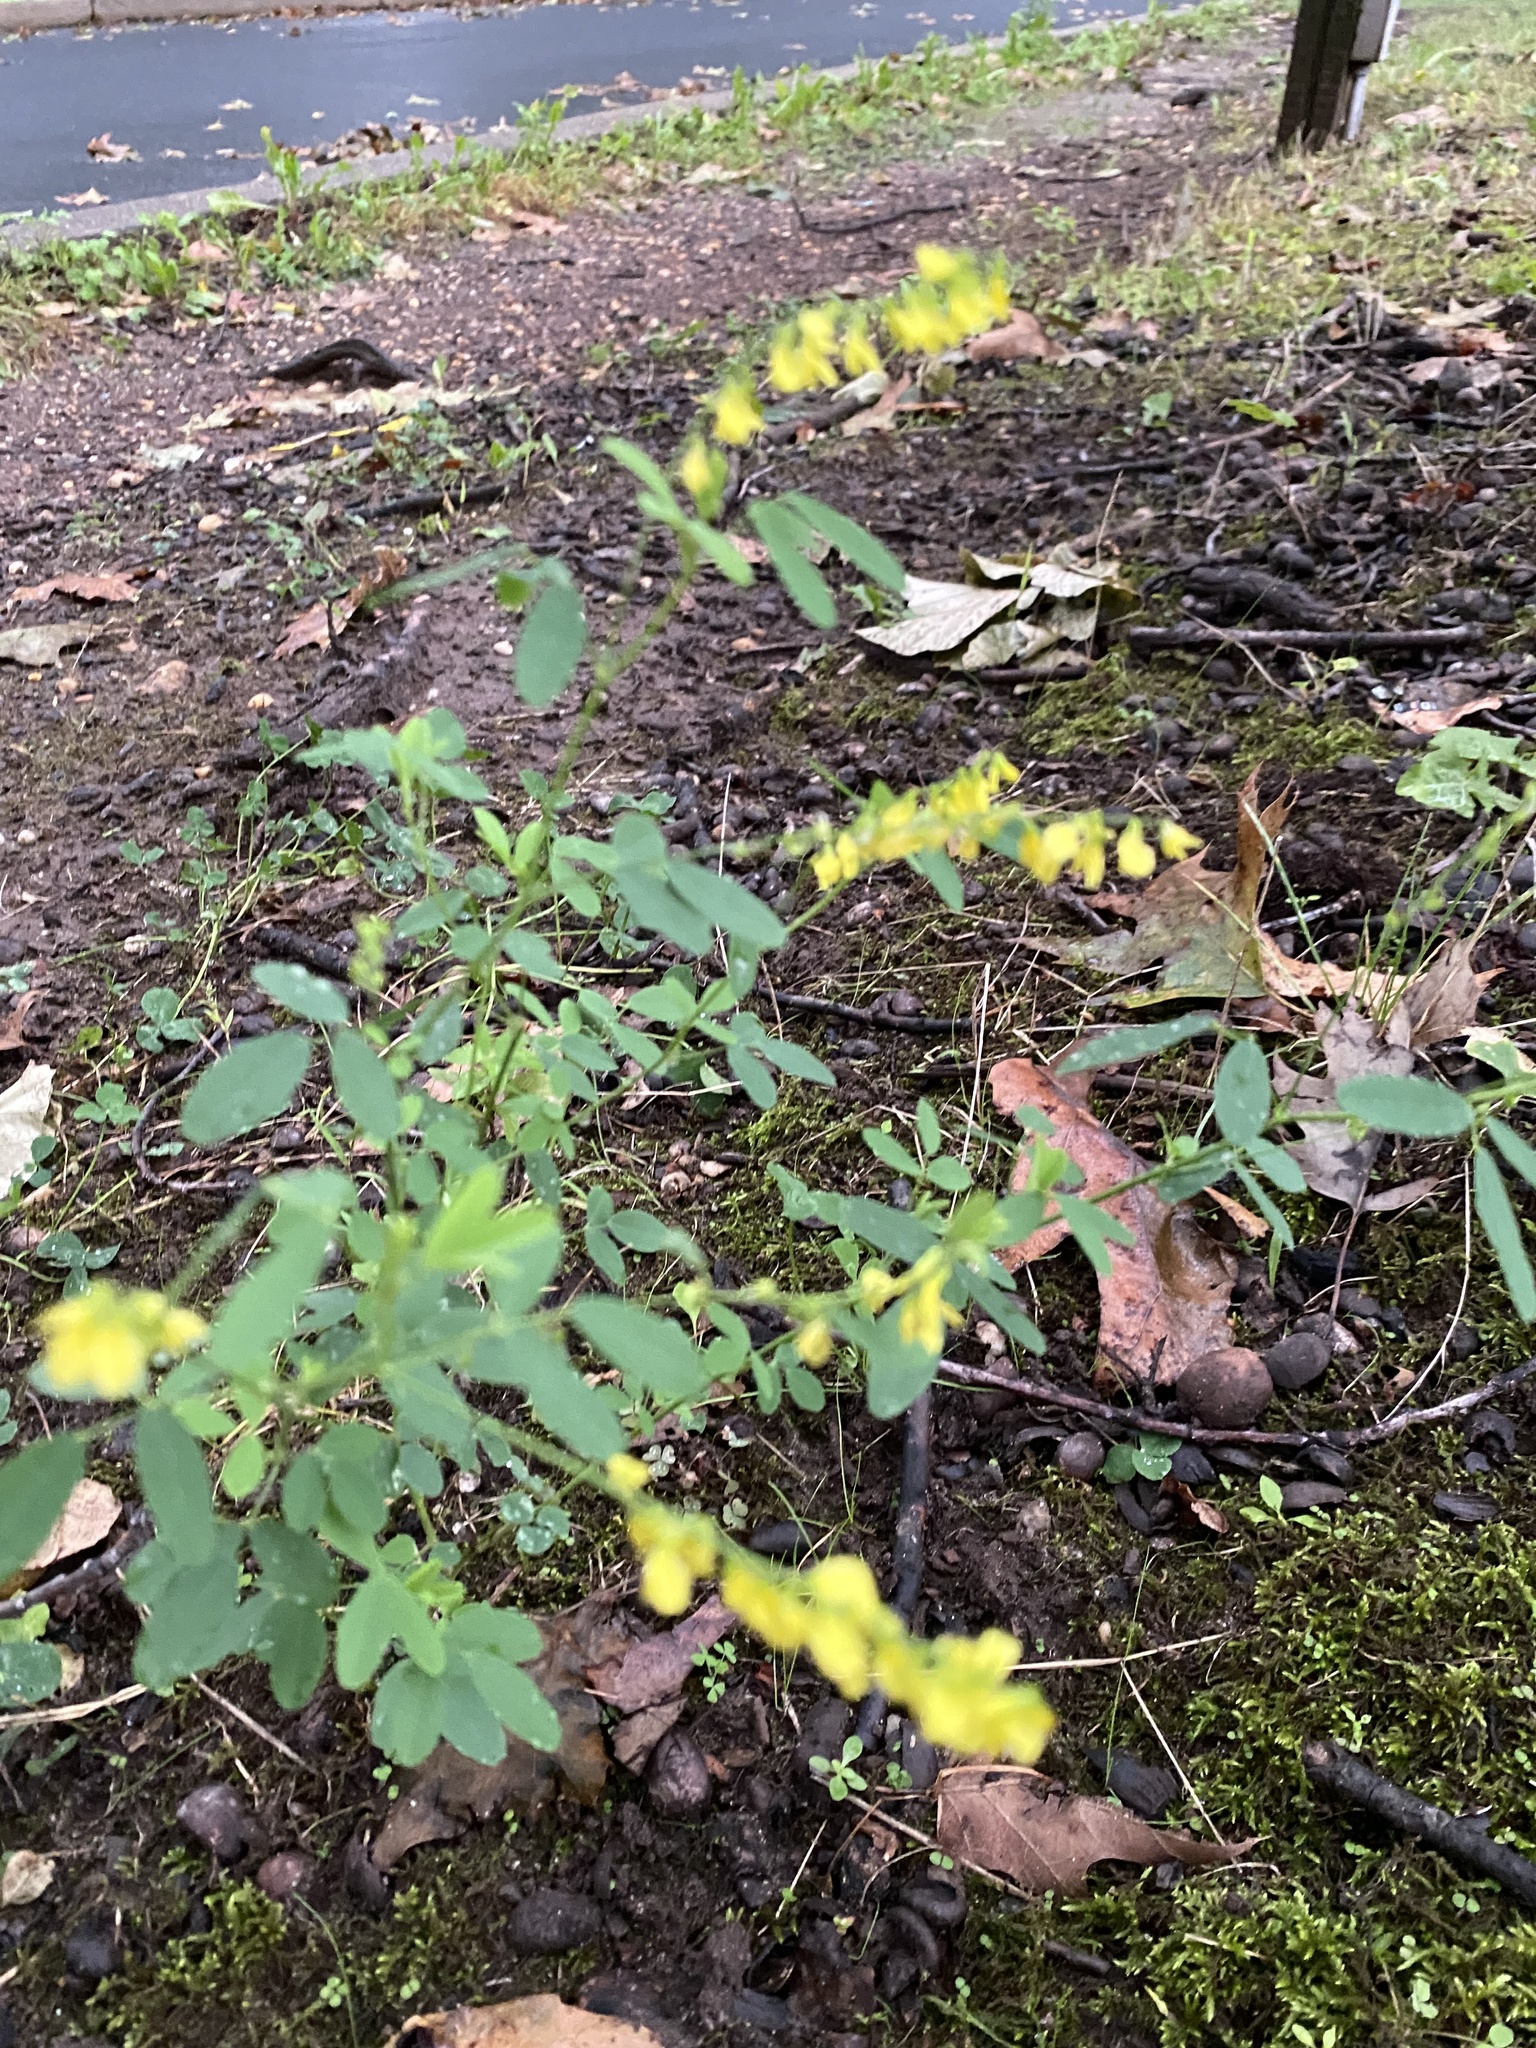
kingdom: Plantae
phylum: Tracheophyta
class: Magnoliopsida
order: Fabales
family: Fabaceae
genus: Melilotus
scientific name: Melilotus officinalis
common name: Sweetclover
